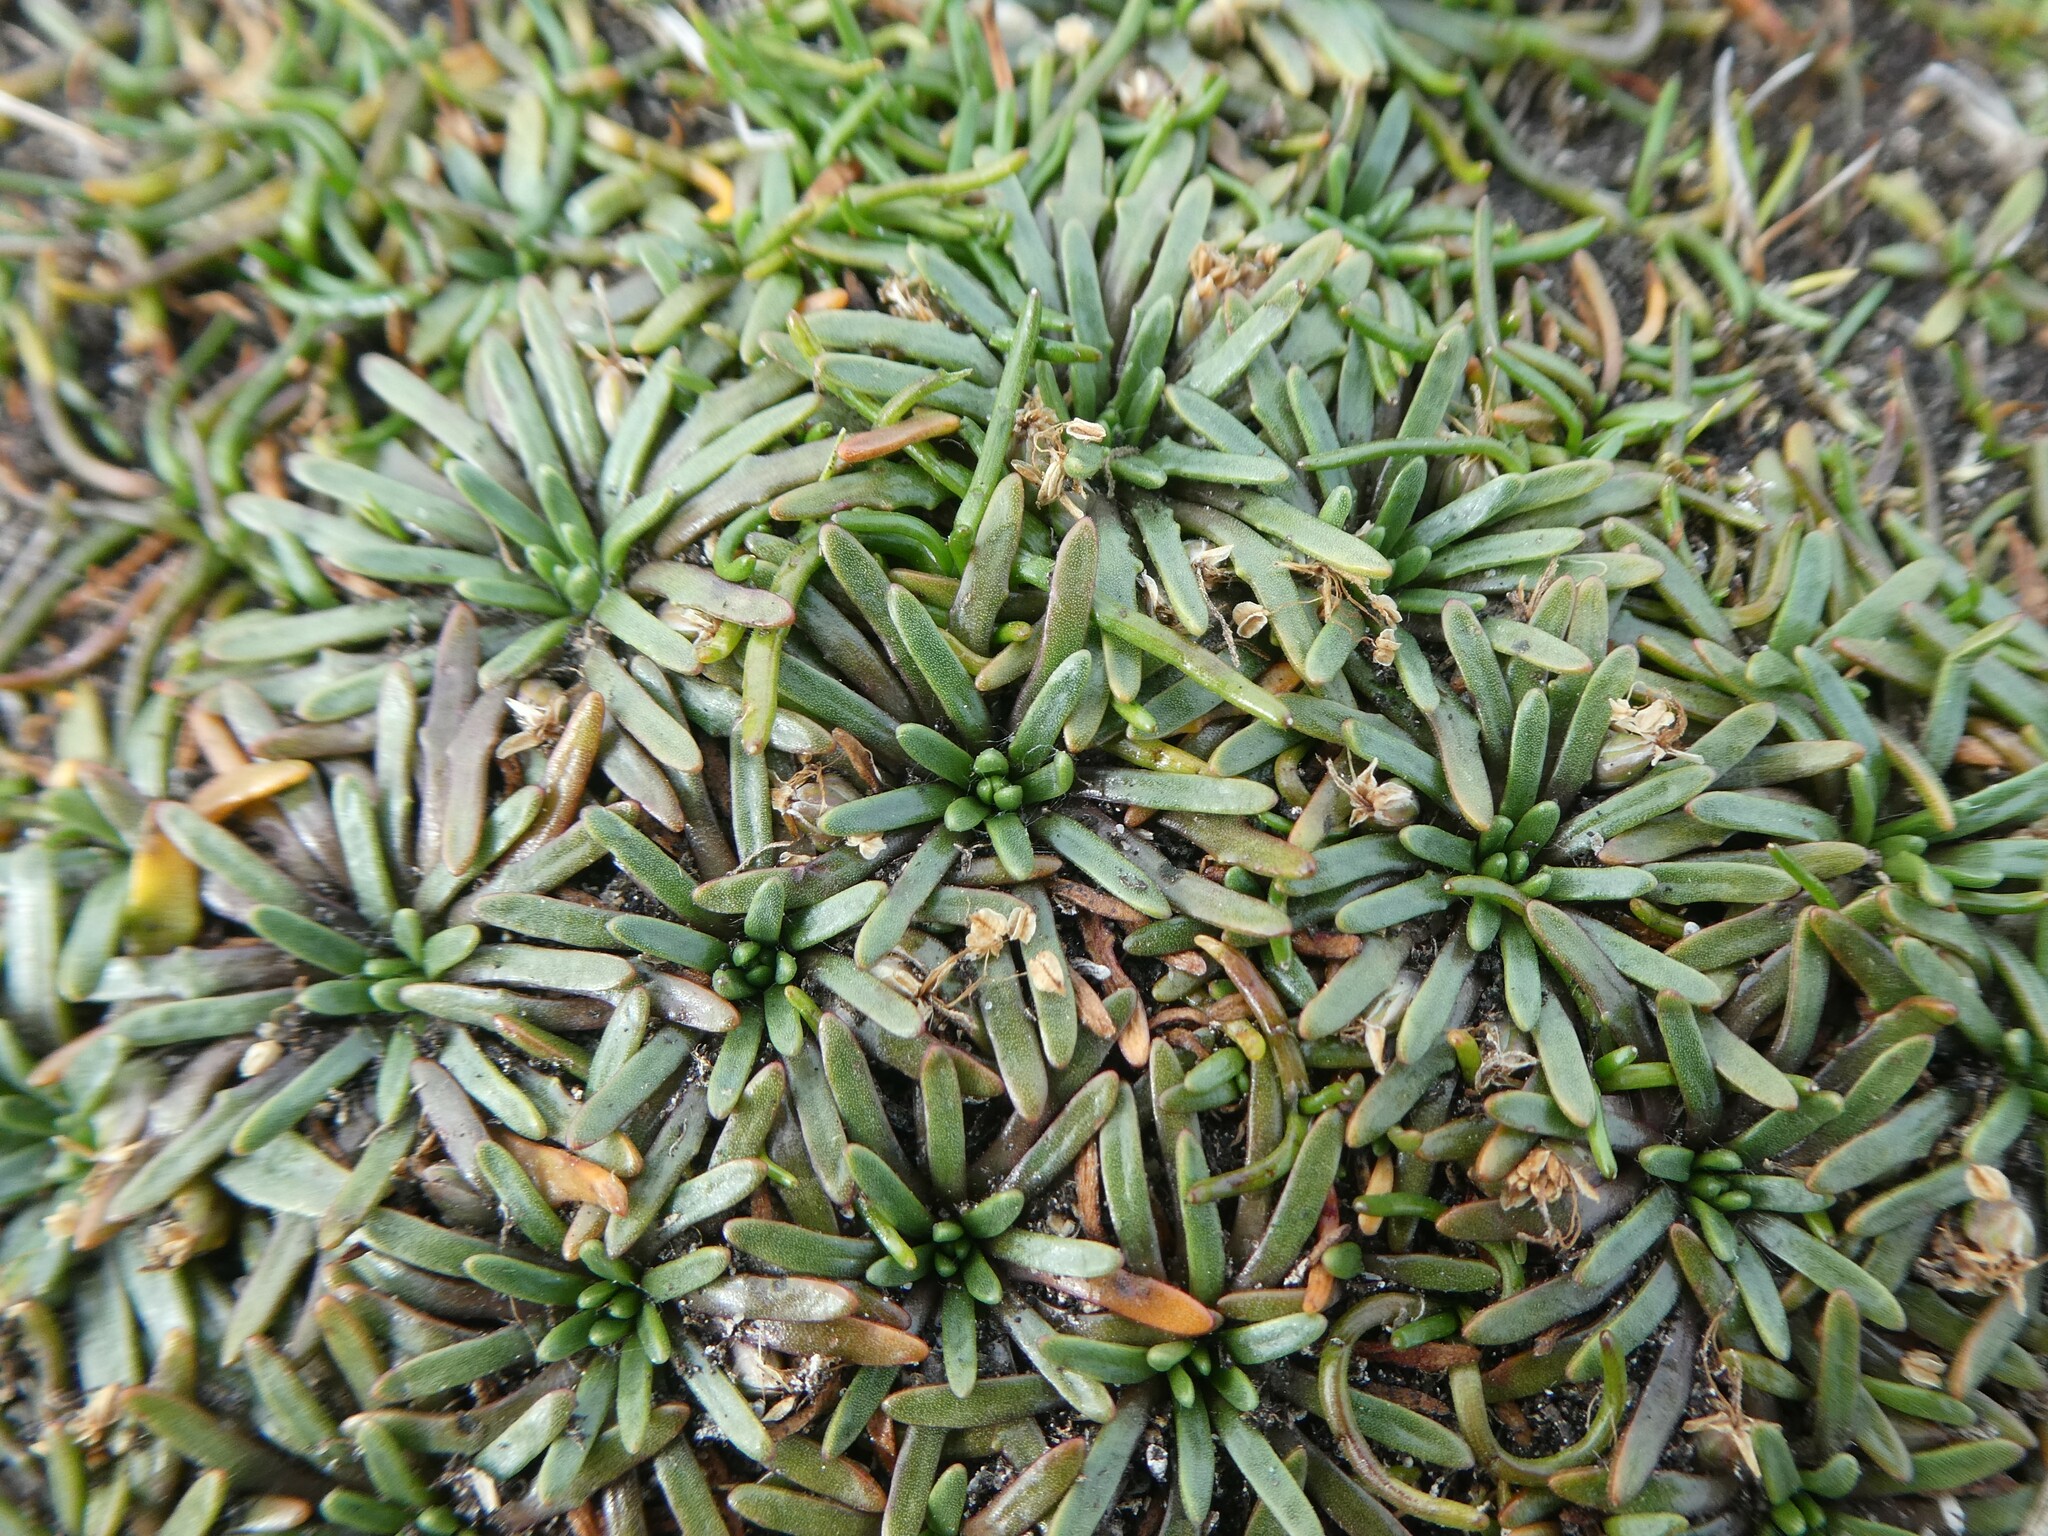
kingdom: Plantae
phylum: Tracheophyta
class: Magnoliopsida
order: Lamiales
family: Plantaginaceae
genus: Plantago
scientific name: Plantago barbata
